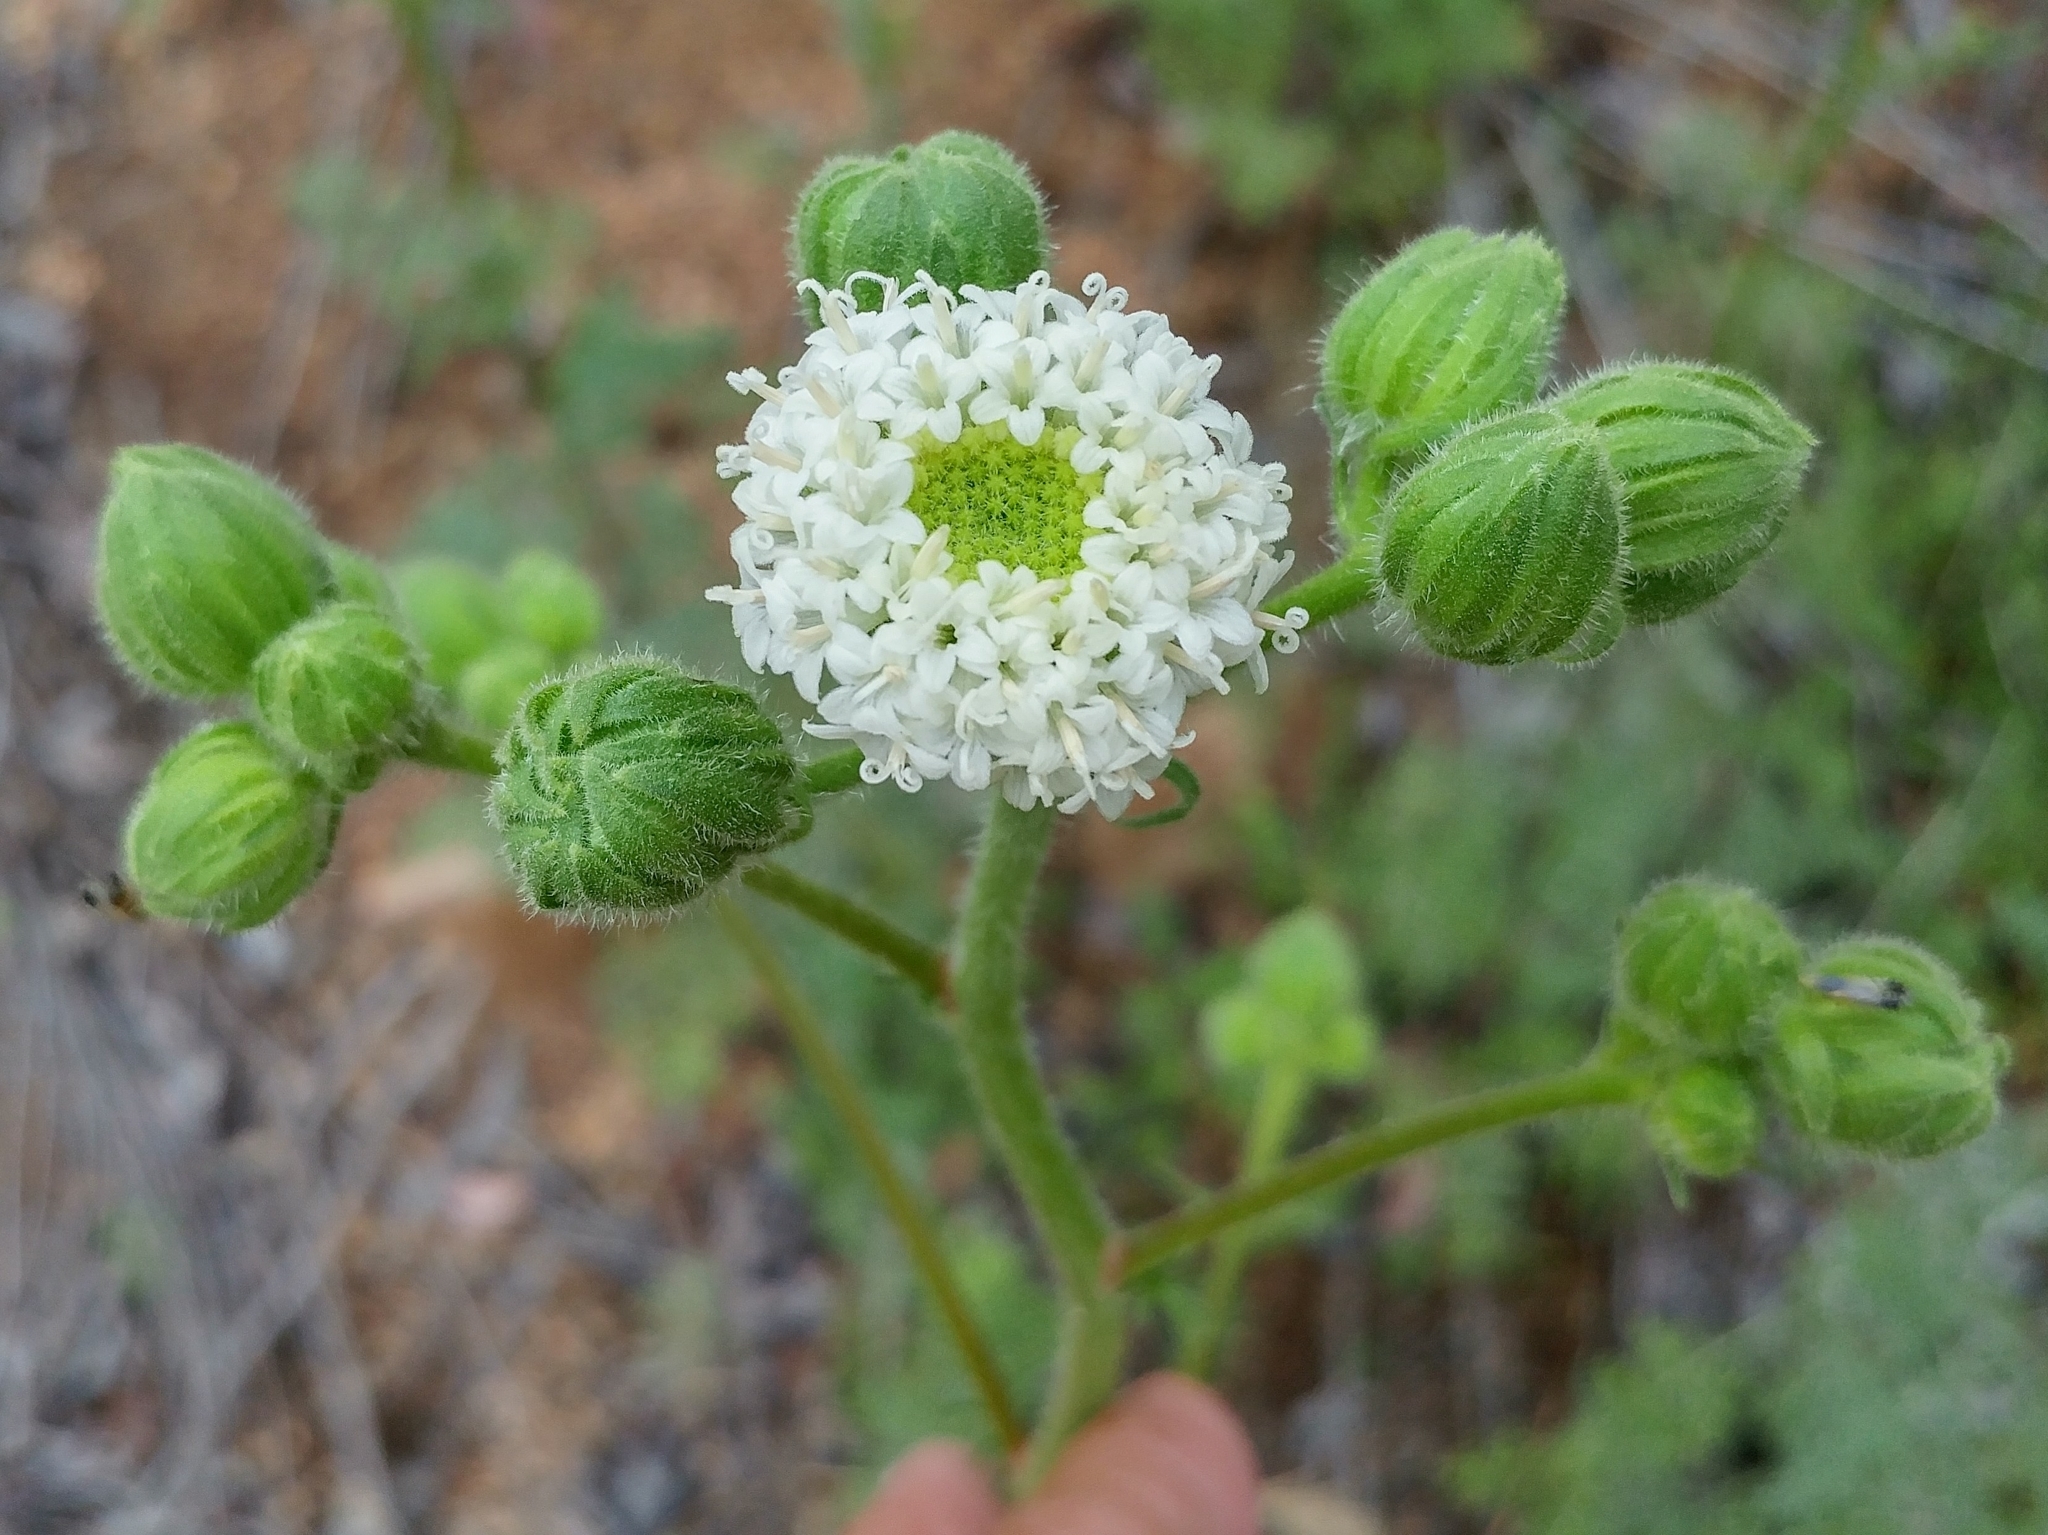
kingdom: Plantae
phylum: Tracheophyta
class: Magnoliopsida
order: Asterales
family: Asteraceae
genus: Chaenactis
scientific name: Chaenactis artemisiifolia
